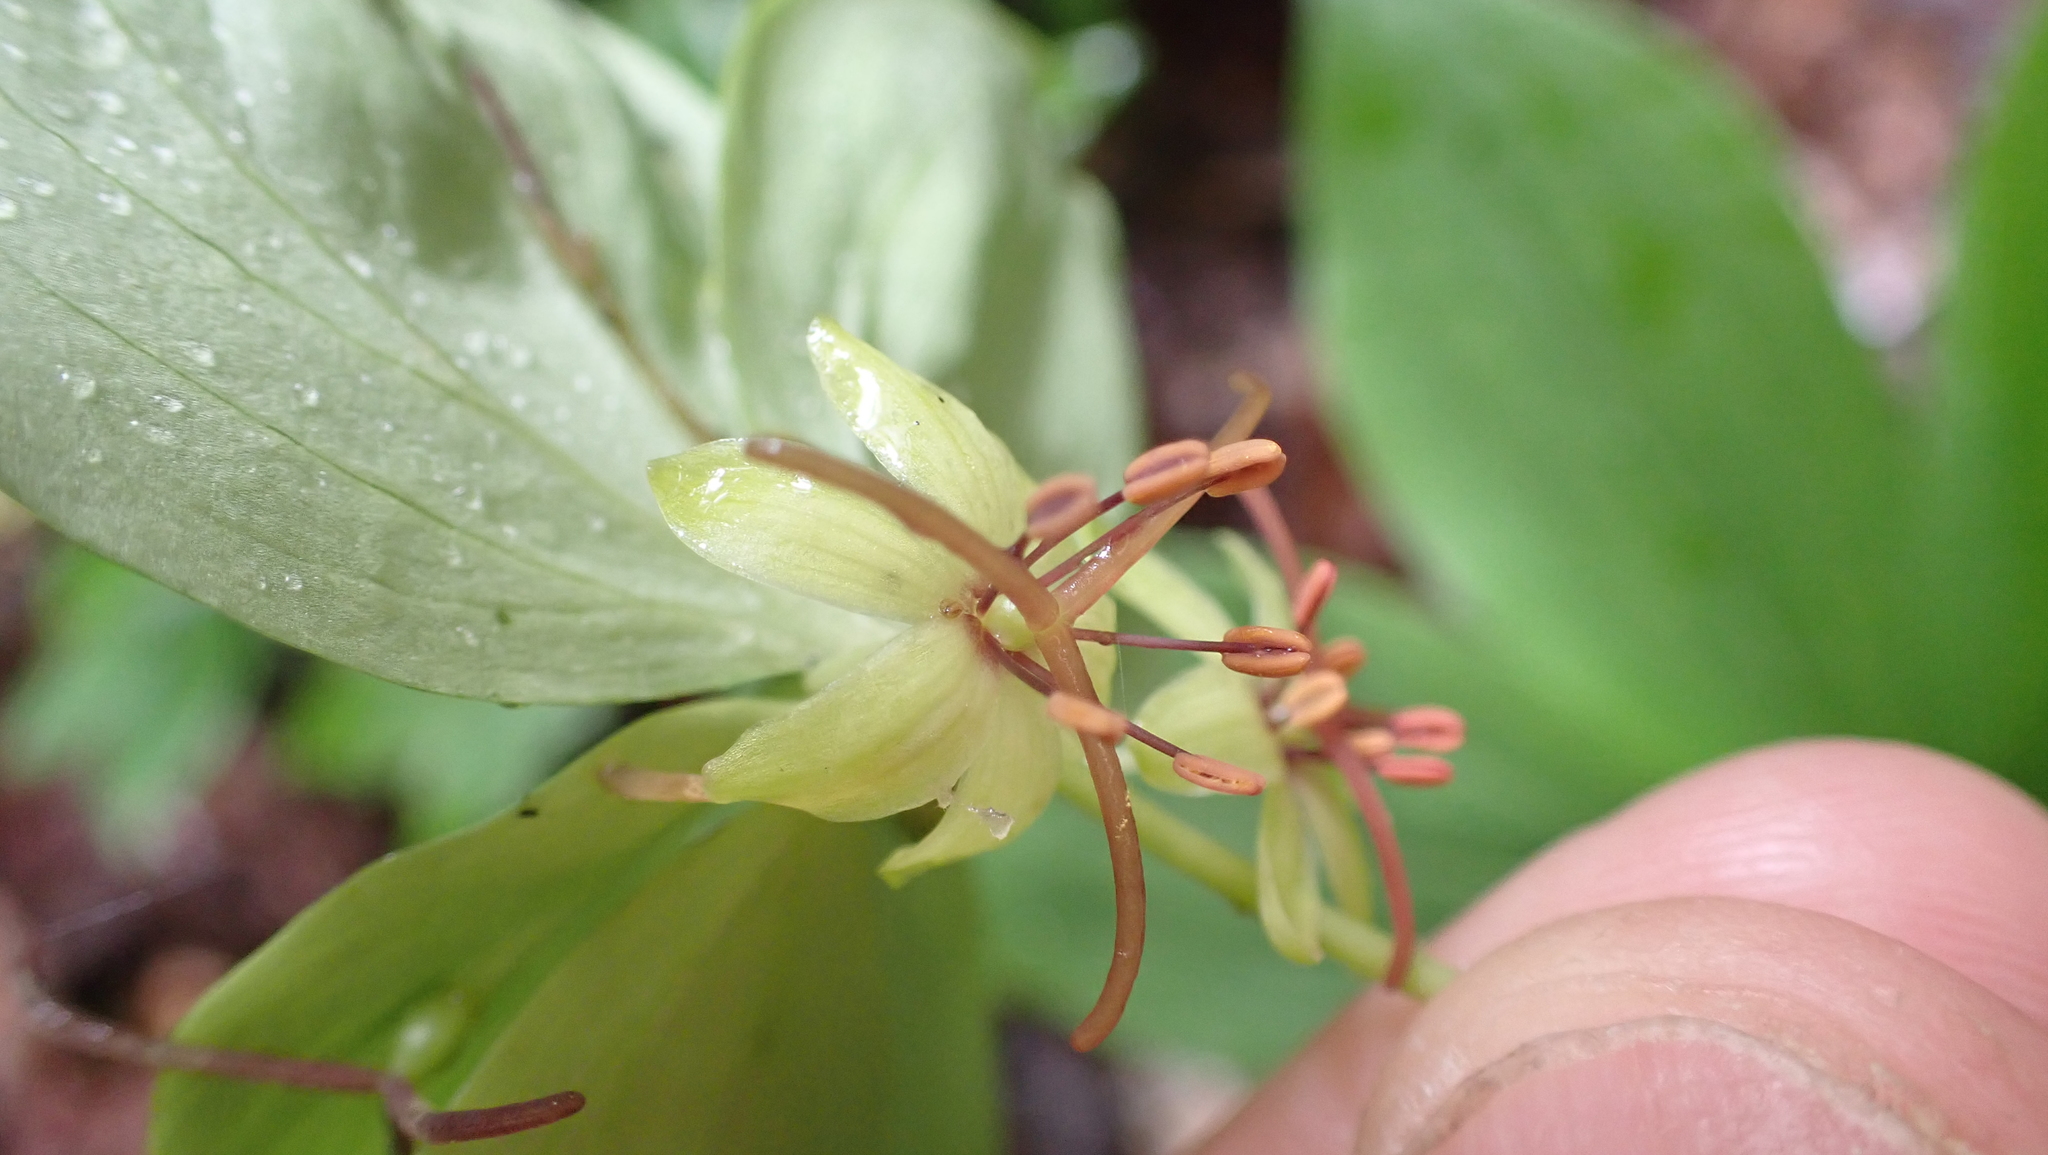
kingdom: Plantae
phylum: Tracheophyta
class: Liliopsida
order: Liliales
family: Liliaceae
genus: Medeola
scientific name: Medeola virginiana
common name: Indian cucumber-root
